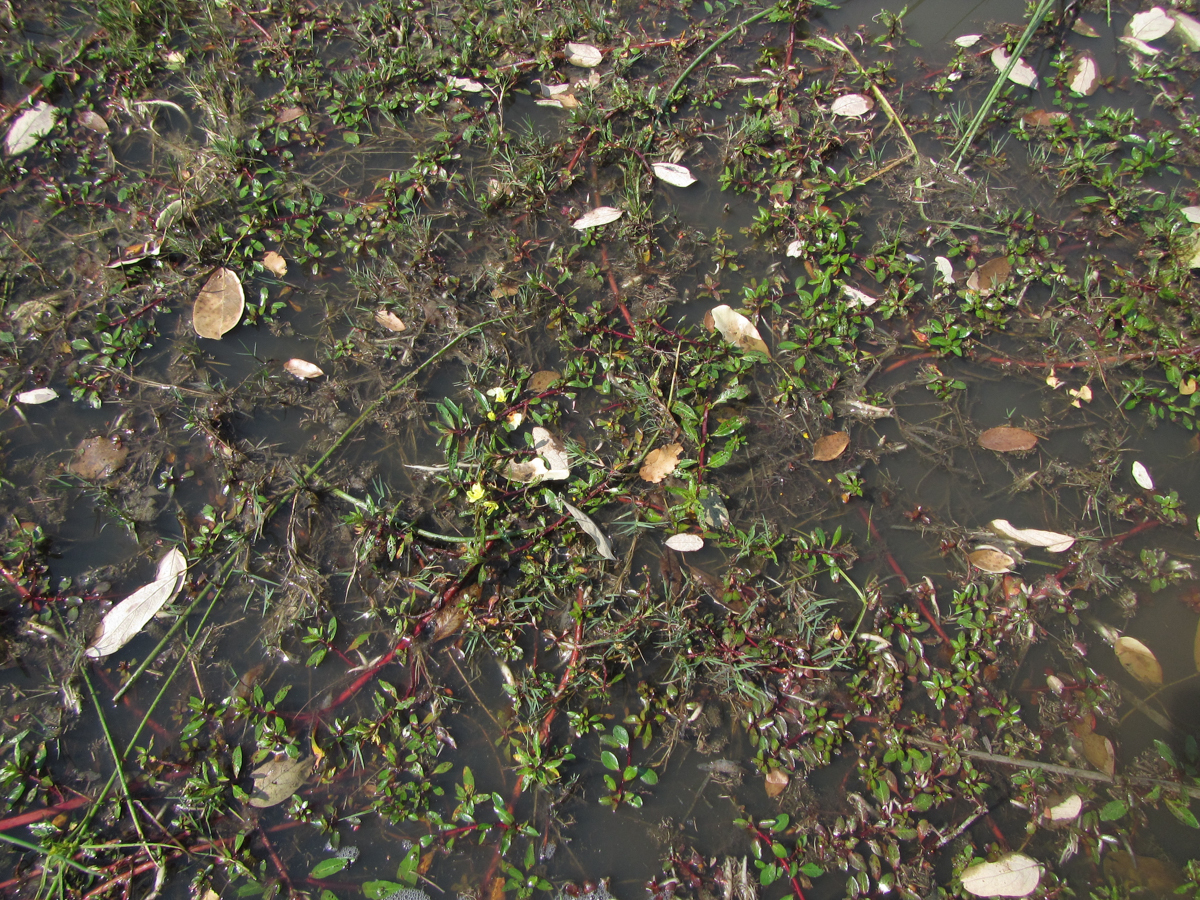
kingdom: Plantae
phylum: Tracheophyta
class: Magnoliopsida
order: Myrtales
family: Onagraceae
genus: Ludwigia
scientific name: Ludwigia adscendens
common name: Creeping water primrose
